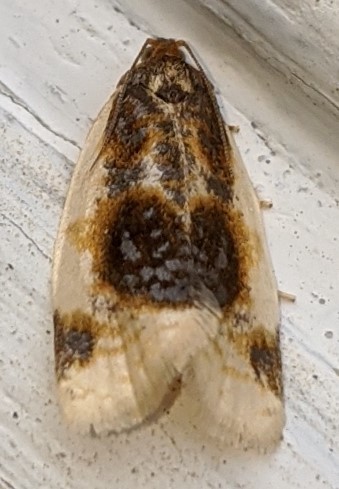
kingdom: Animalia
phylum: Arthropoda
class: Insecta
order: Lepidoptera
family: Tortricidae
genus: Clepsis
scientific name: Clepsis melaleucanus
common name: American apple tortrix
